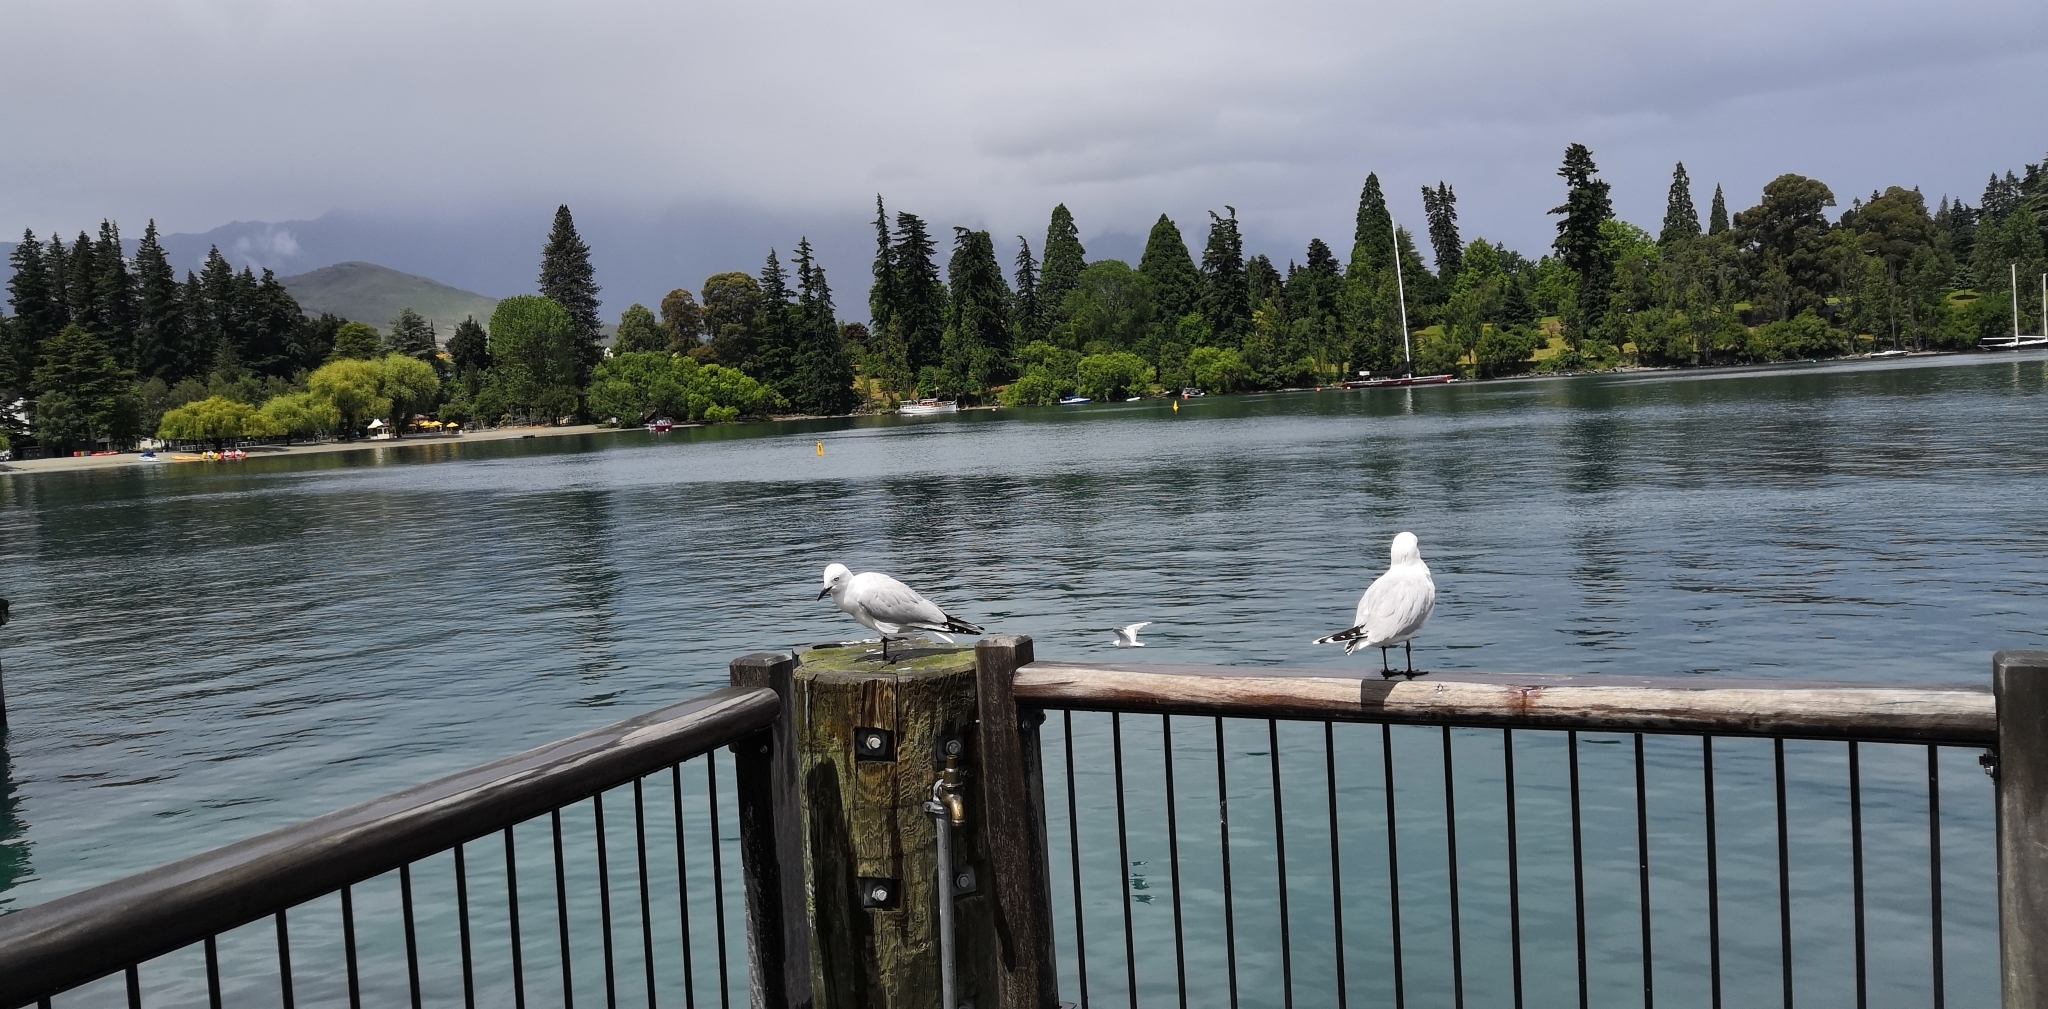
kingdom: Animalia
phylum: Chordata
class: Aves
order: Charadriiformes
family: Laridae
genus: Chroicocephalus
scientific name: Chroicocephalus bulleri
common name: Black-billed gull
